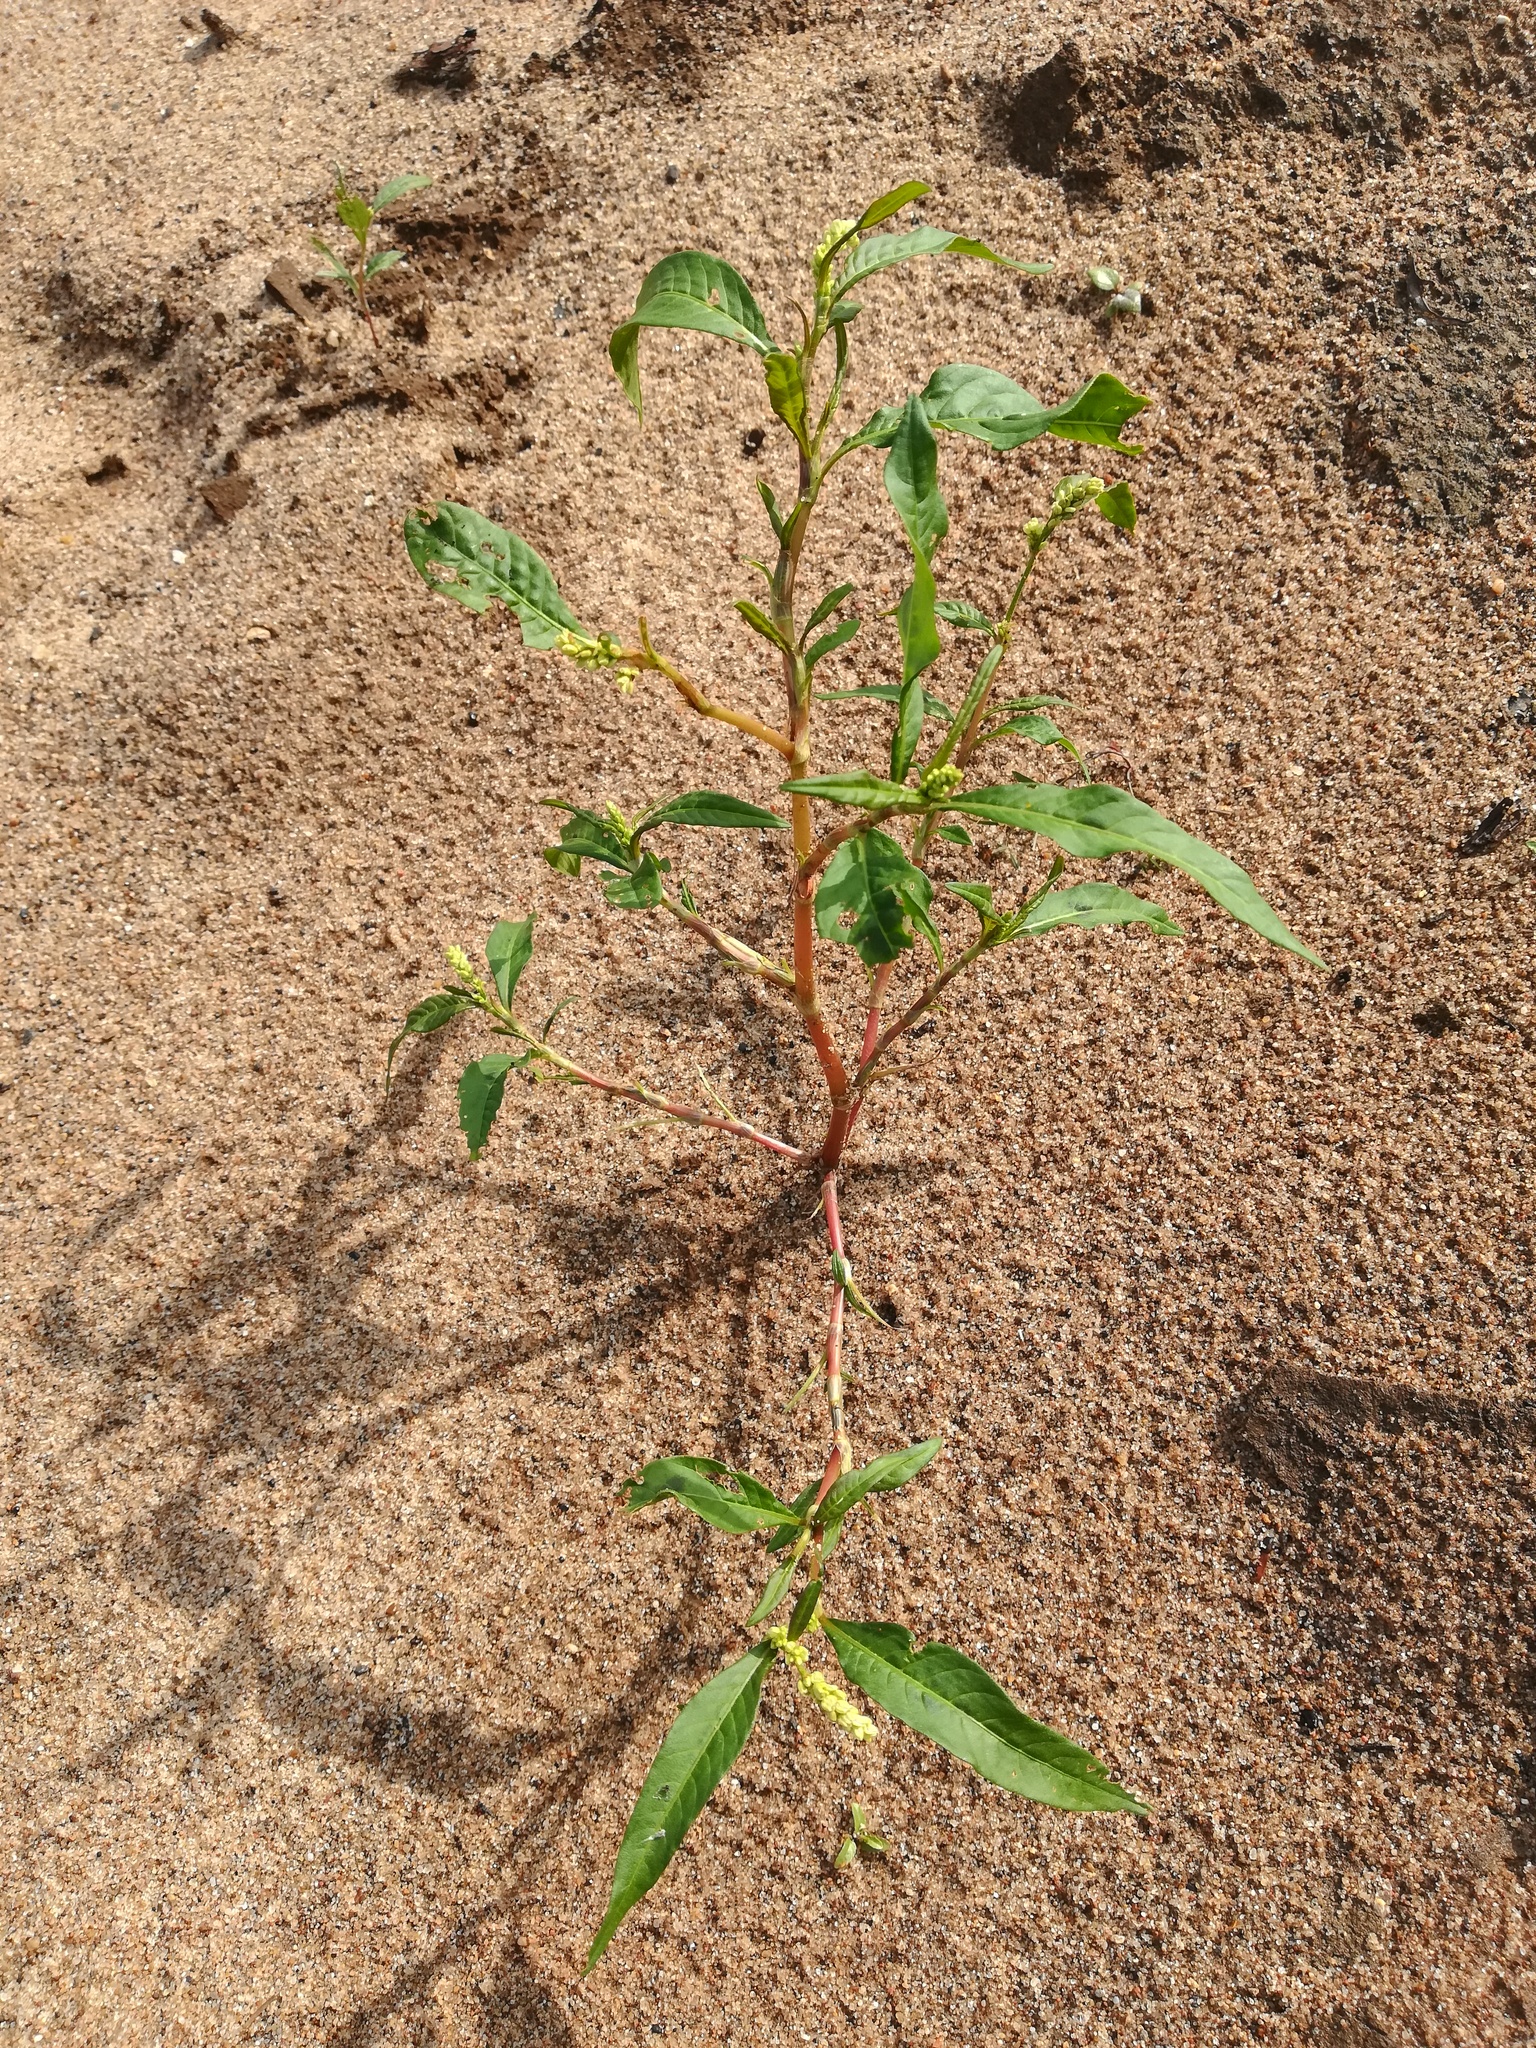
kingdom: Plantae
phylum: Tracheophyta
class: Magnoliopsida
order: Caryophyllales
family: Polygonaceae
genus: Persicaria
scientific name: Persicaria lapathifolia
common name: Curlytop knotweed
